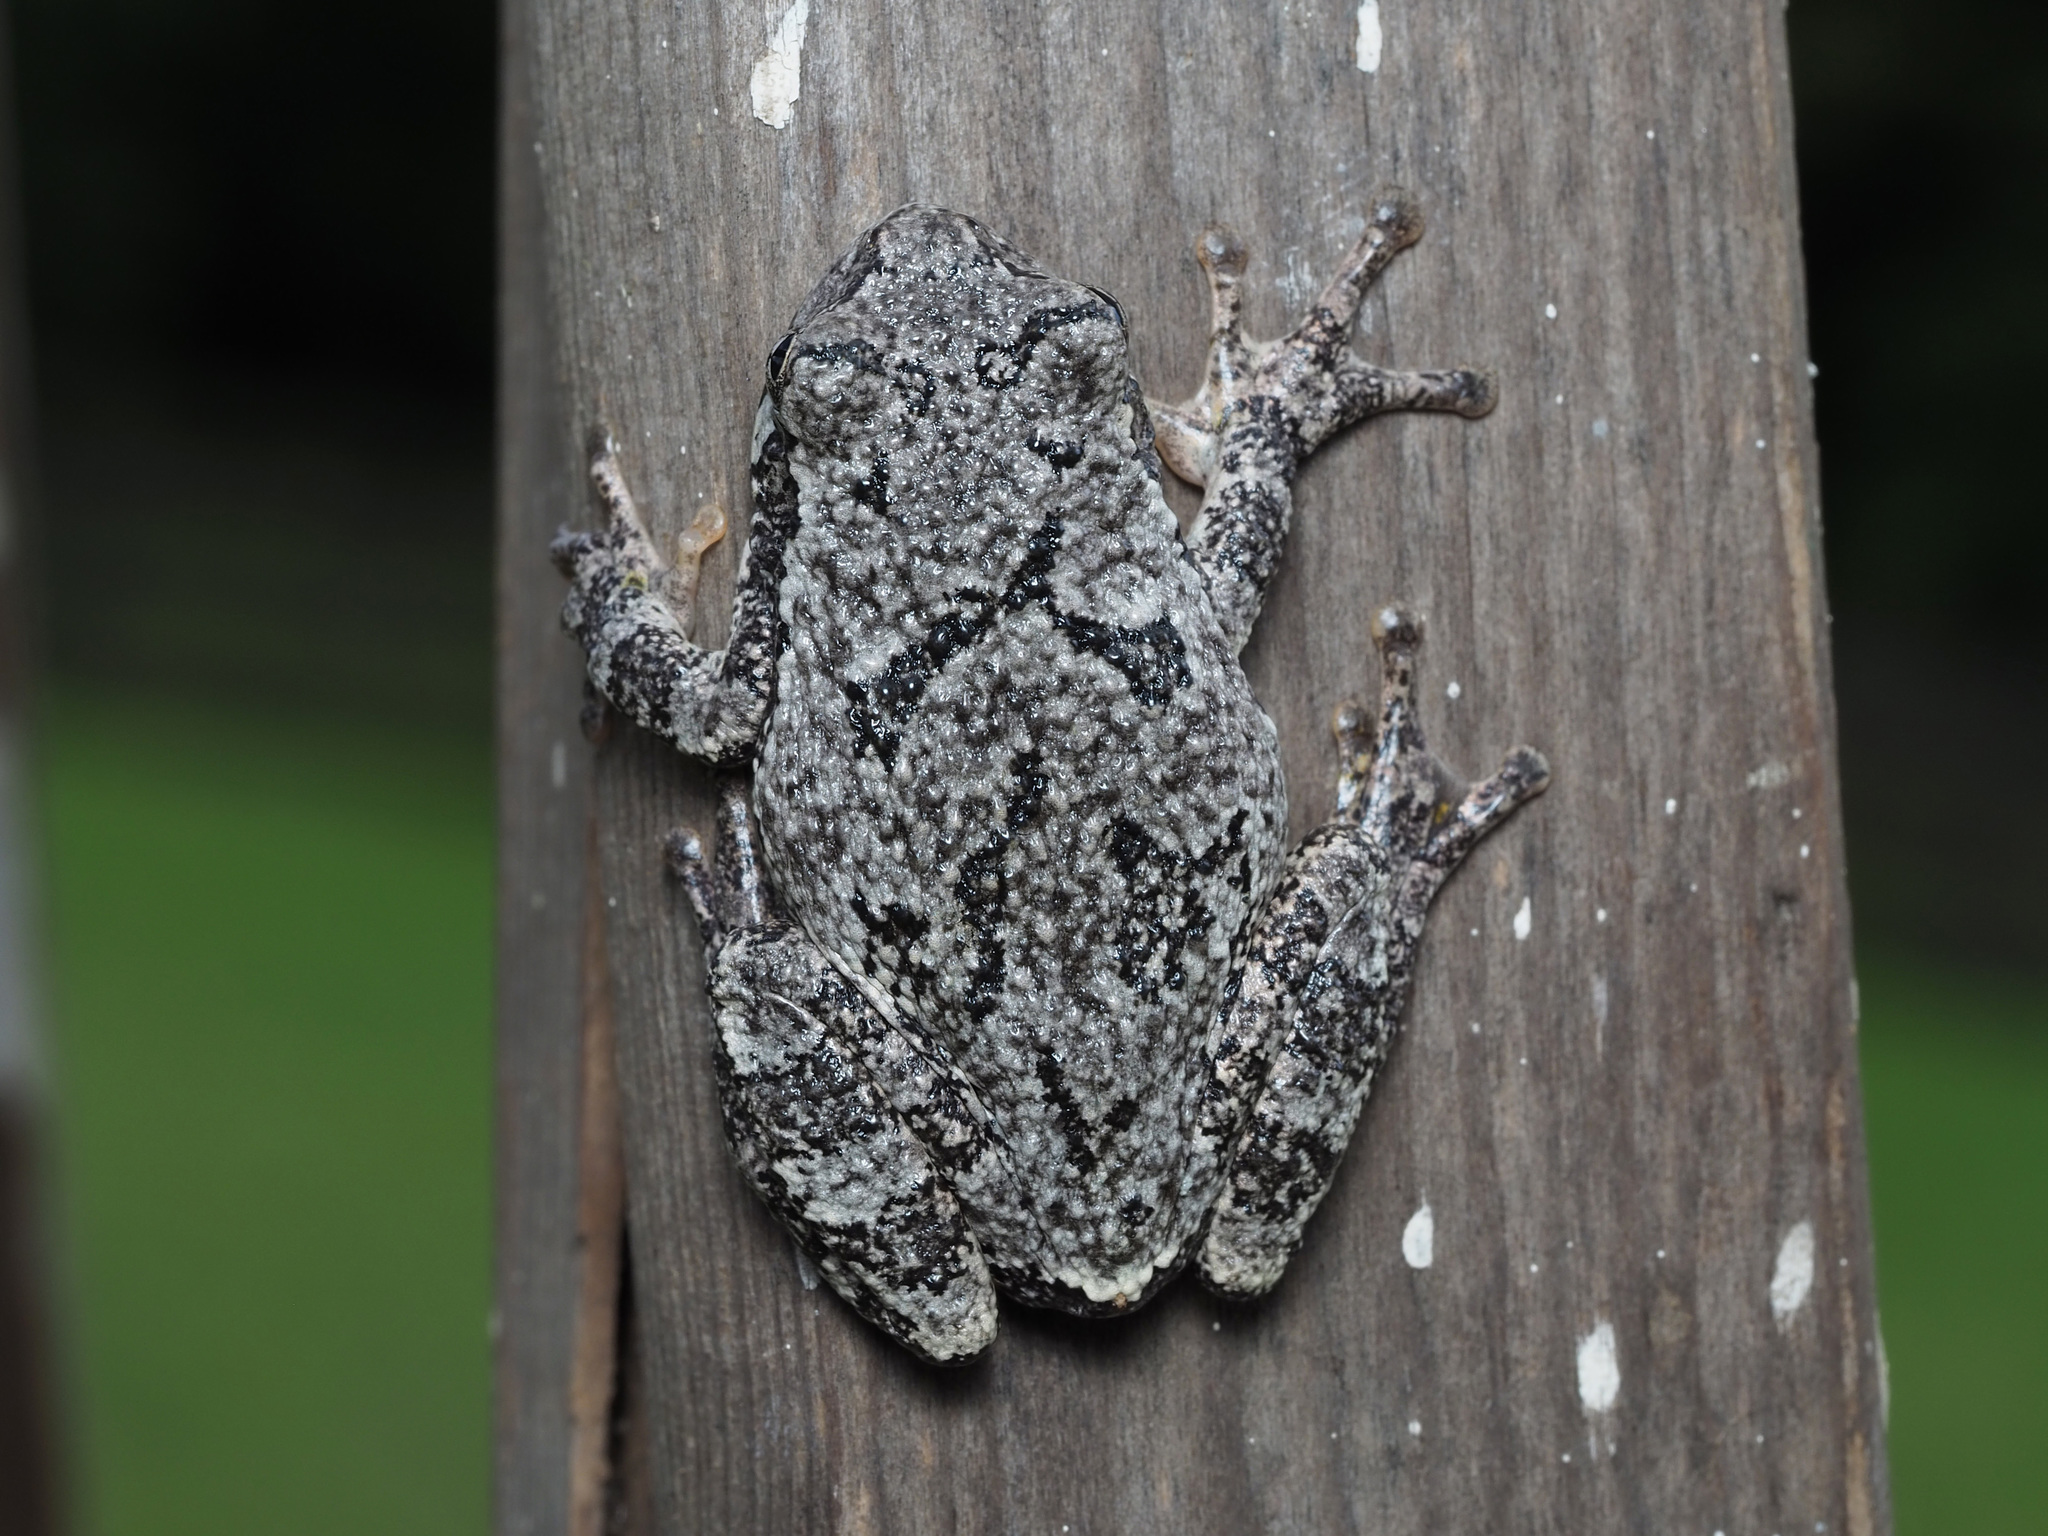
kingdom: Animalia
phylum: Chordata
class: Amphibia
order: Anura
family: Hylidae
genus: Dryophytes
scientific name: Dryophytes versicolor
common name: Gray treefrog
